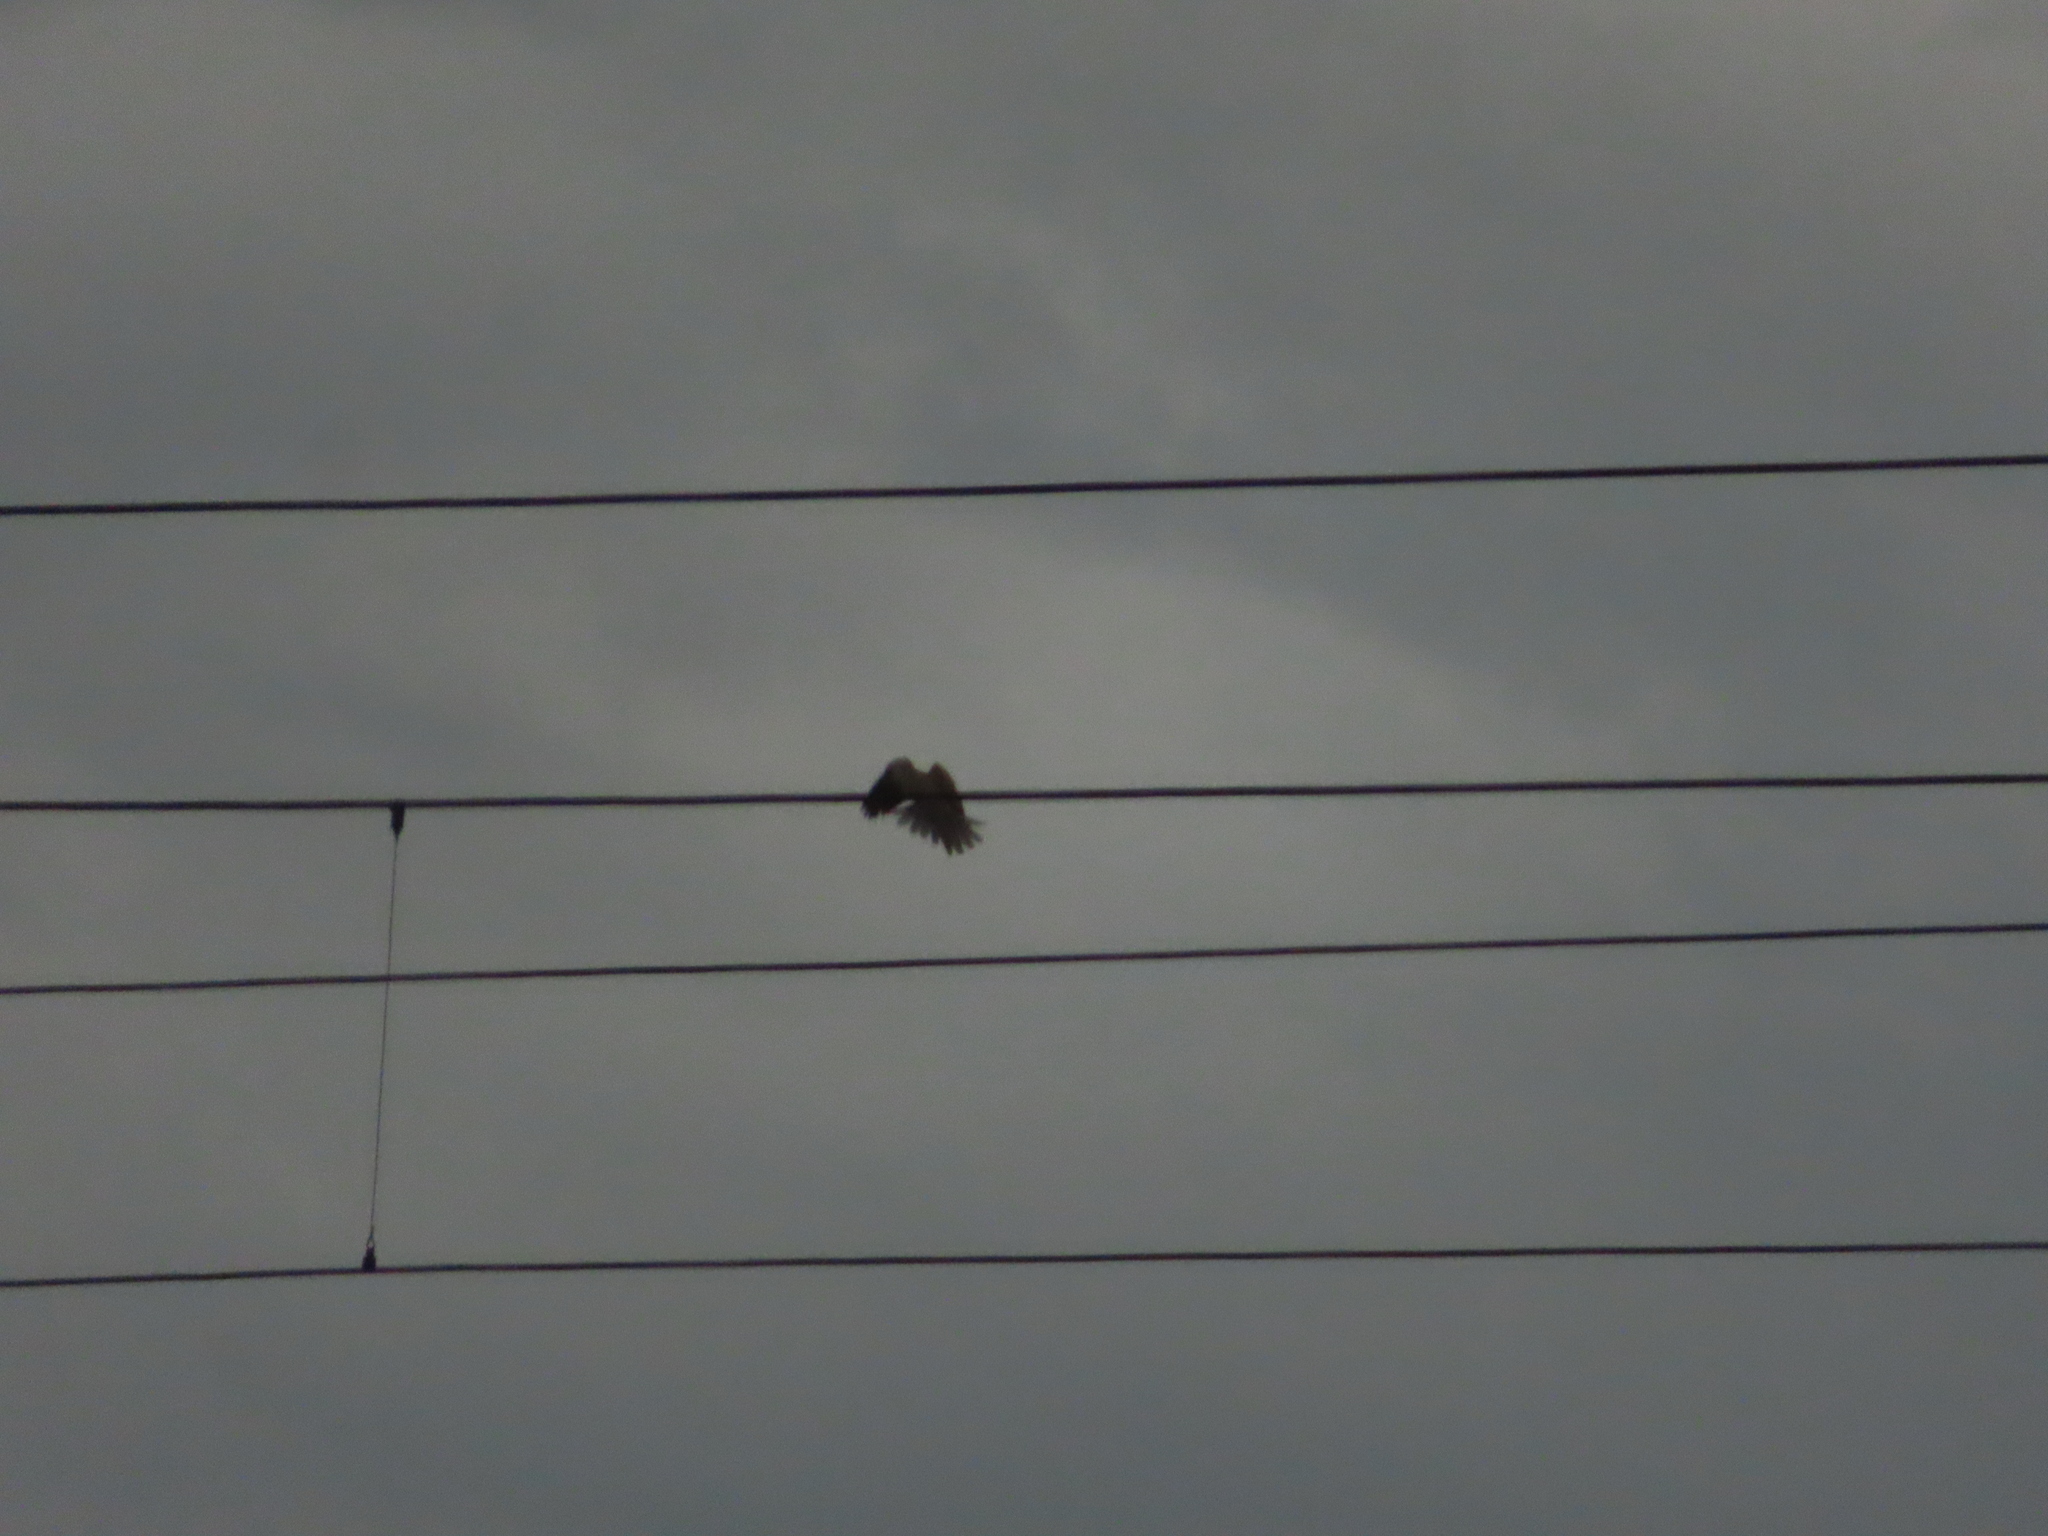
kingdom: Animalia
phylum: Chordata
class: Aves
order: Columbiformes
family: Columbidae
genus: Columba
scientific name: Columba livia
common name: Rock pigeon
